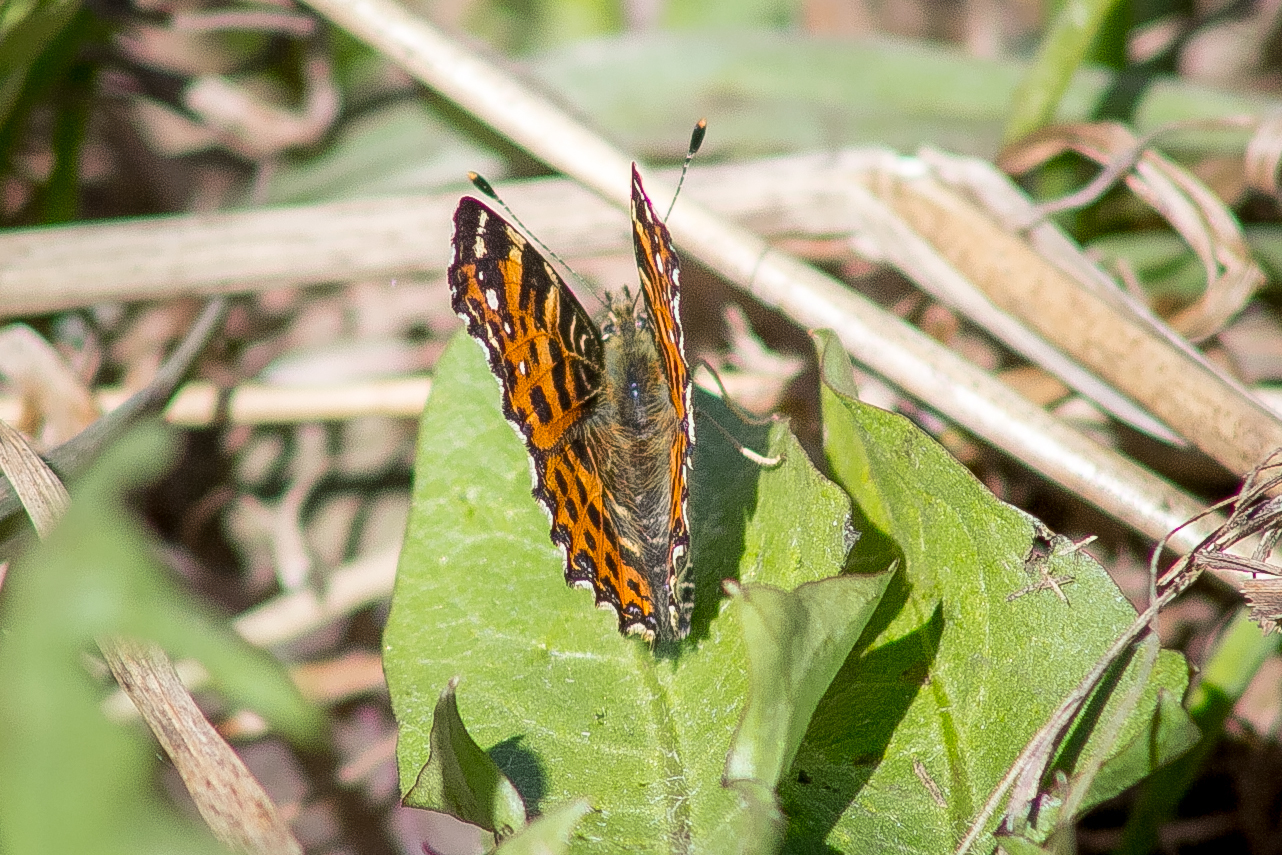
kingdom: Animalia
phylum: Arthropoda
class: Insecta
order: Lepidoptera
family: Nymphalidae
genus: Araschnia
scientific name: Araschnia levana
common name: Map butterfly
